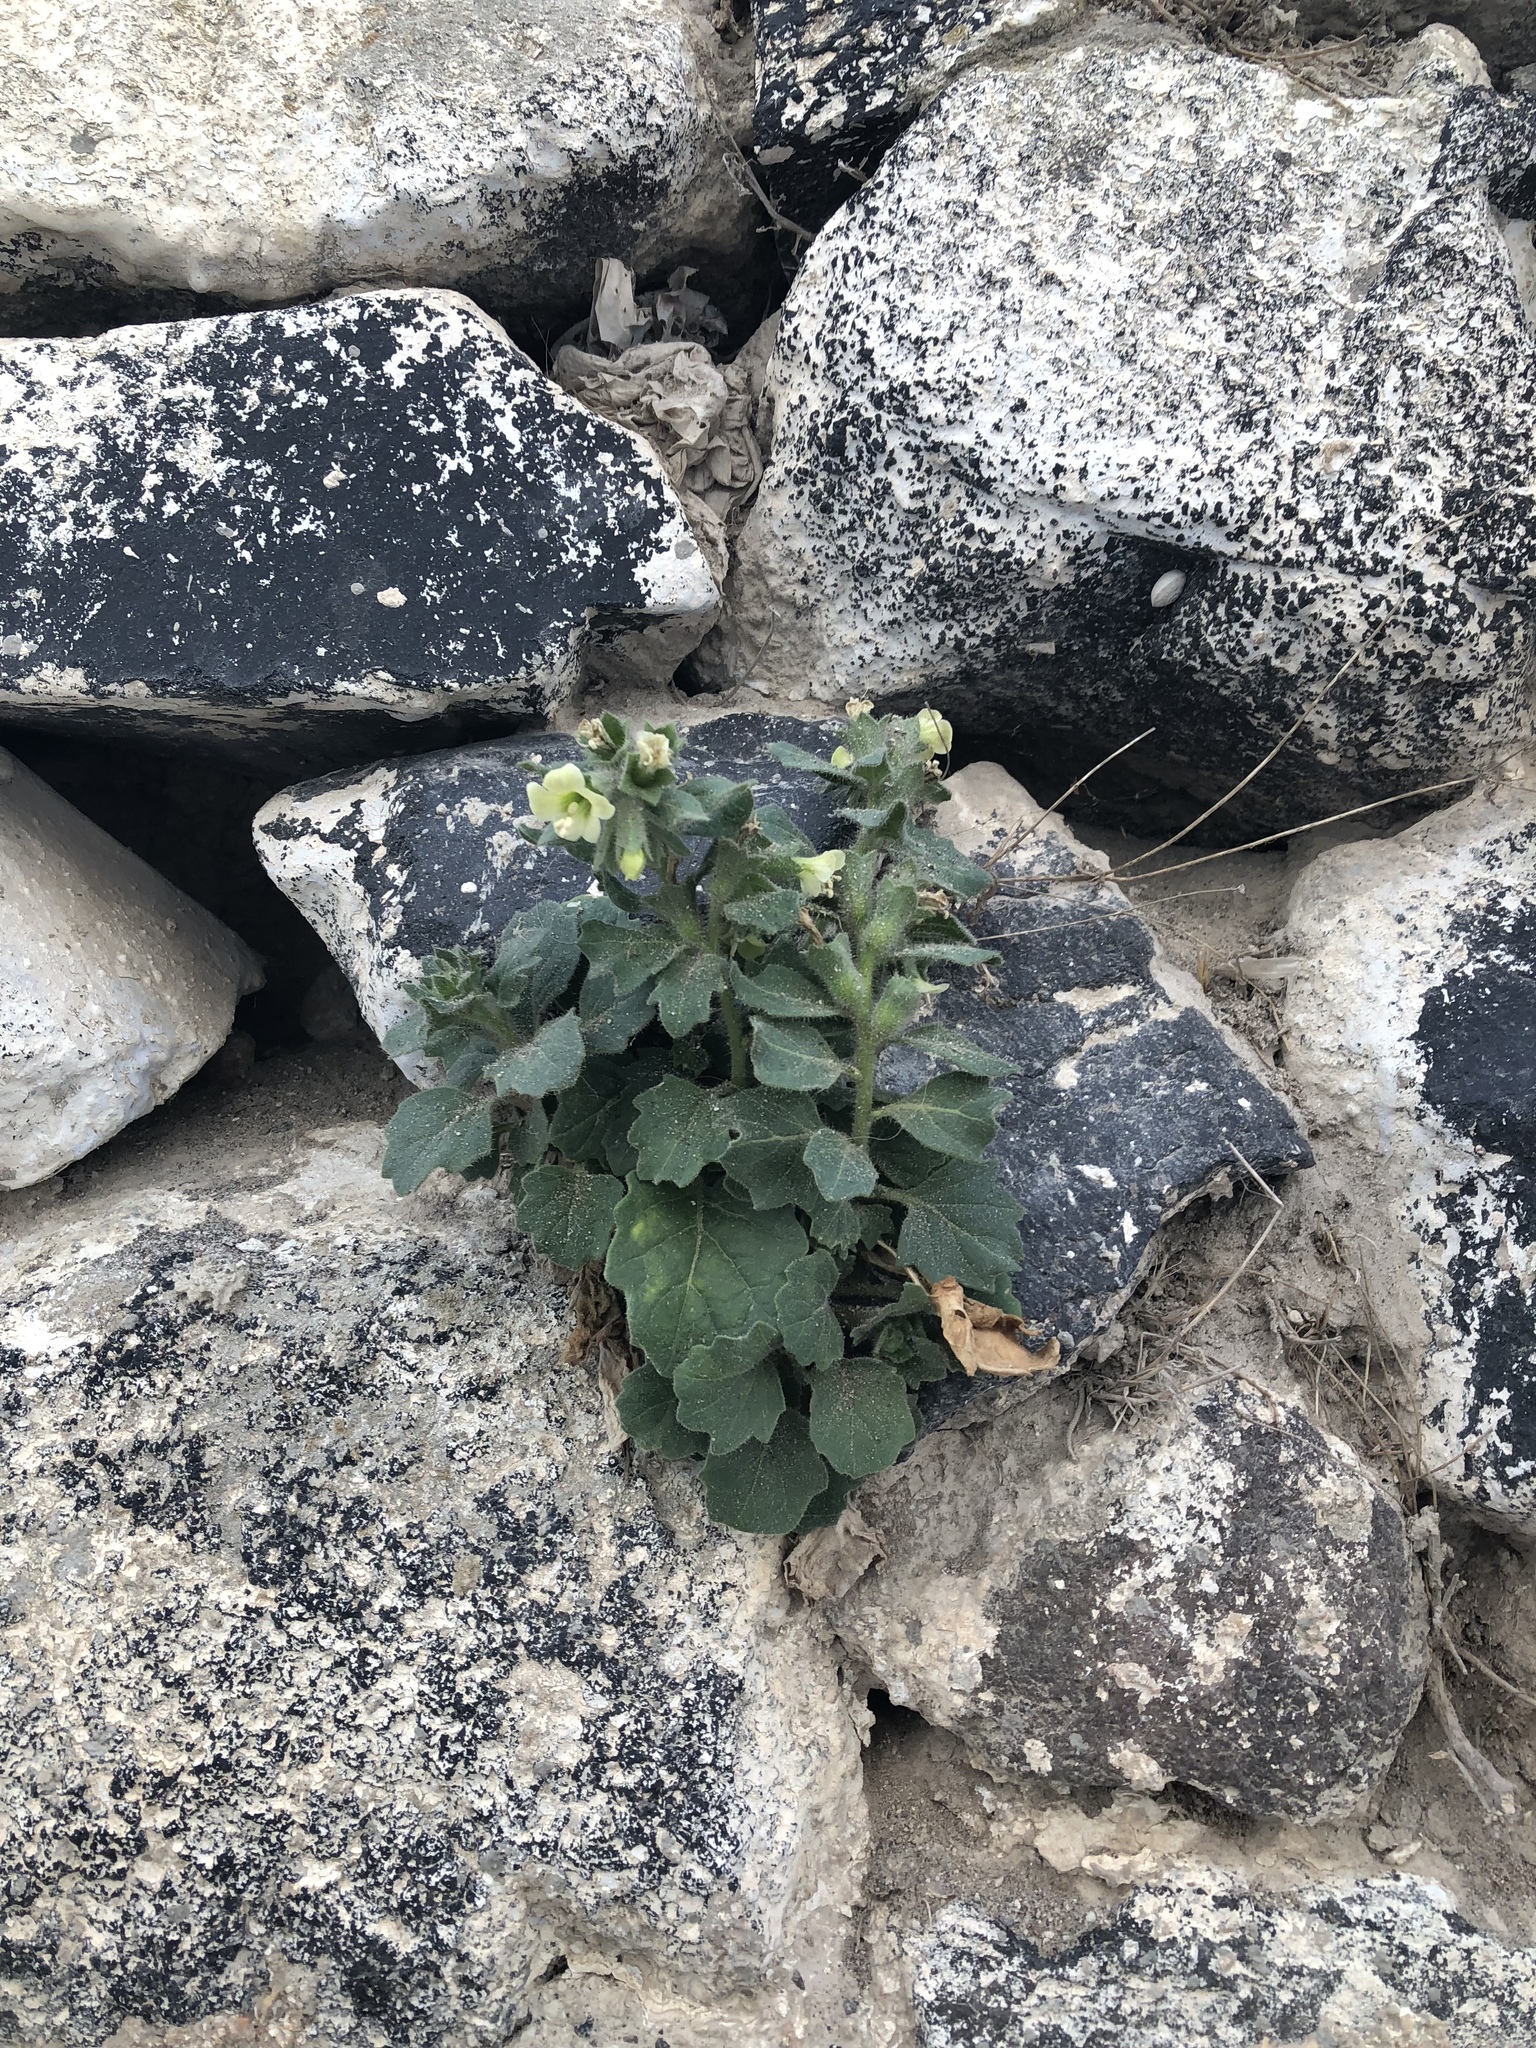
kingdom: Plantae
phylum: Tracheophyta
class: Magnoliopsida
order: Solanales
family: Solanaceae
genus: Hyoscyamus
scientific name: Hyoscyamus albus
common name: White henbane
